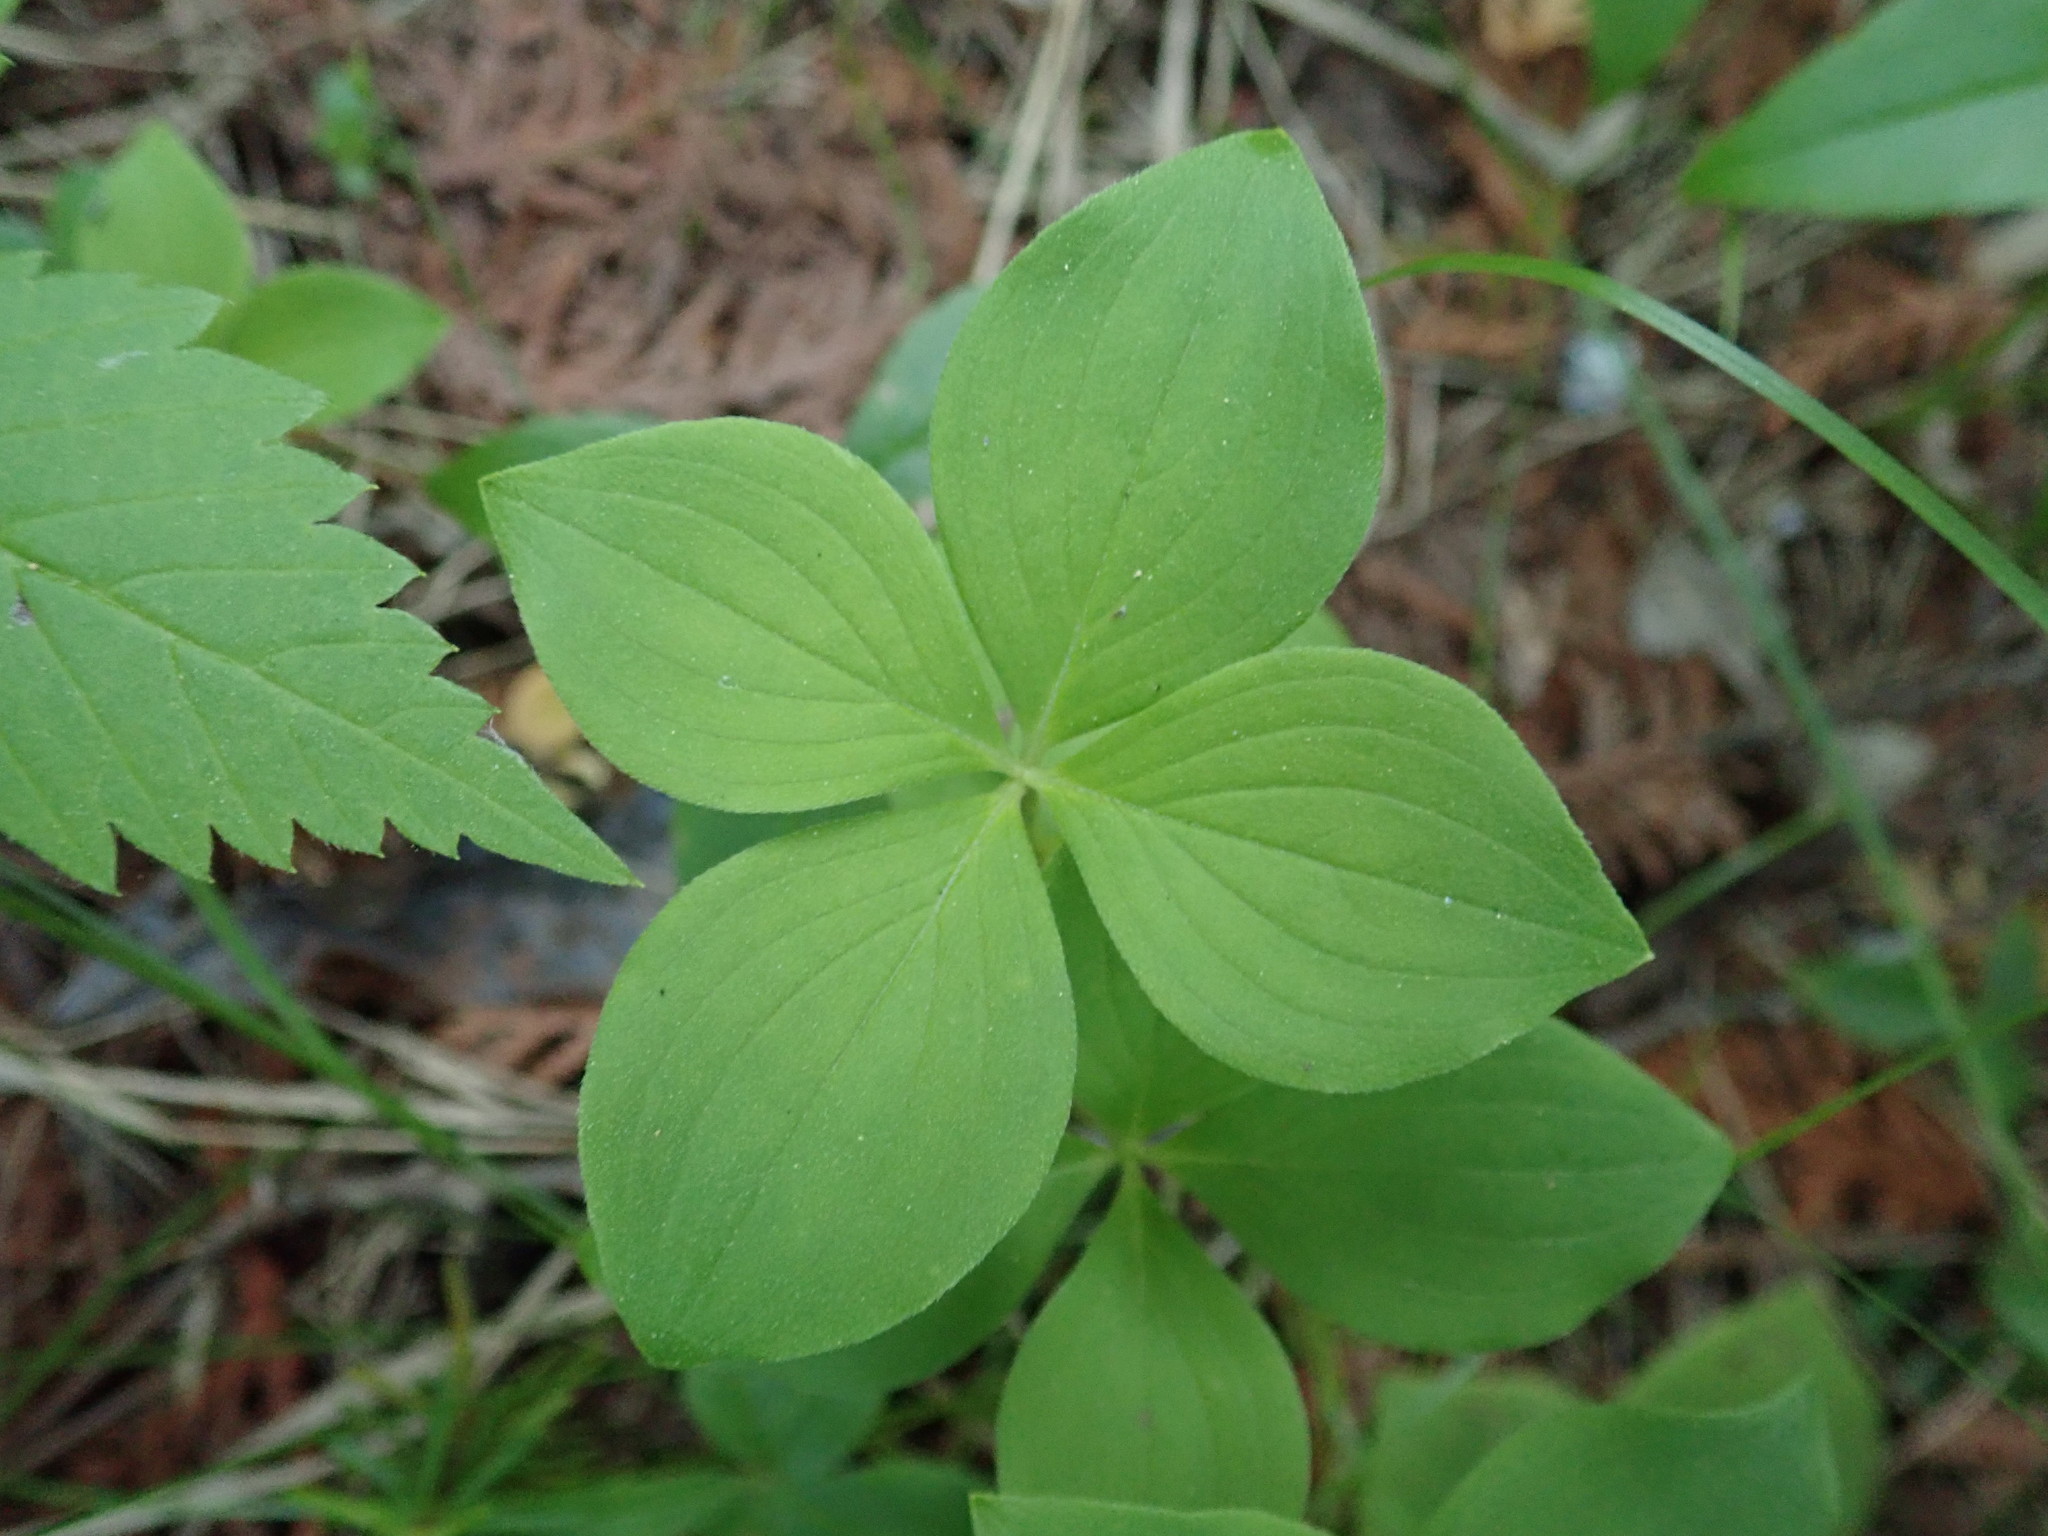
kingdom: Plantae
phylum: Tracheophyta
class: Magnoliopsida
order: Cornales
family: Cornaceae
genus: Cornus
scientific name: Cornus canadensis
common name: Creeping dogwood
